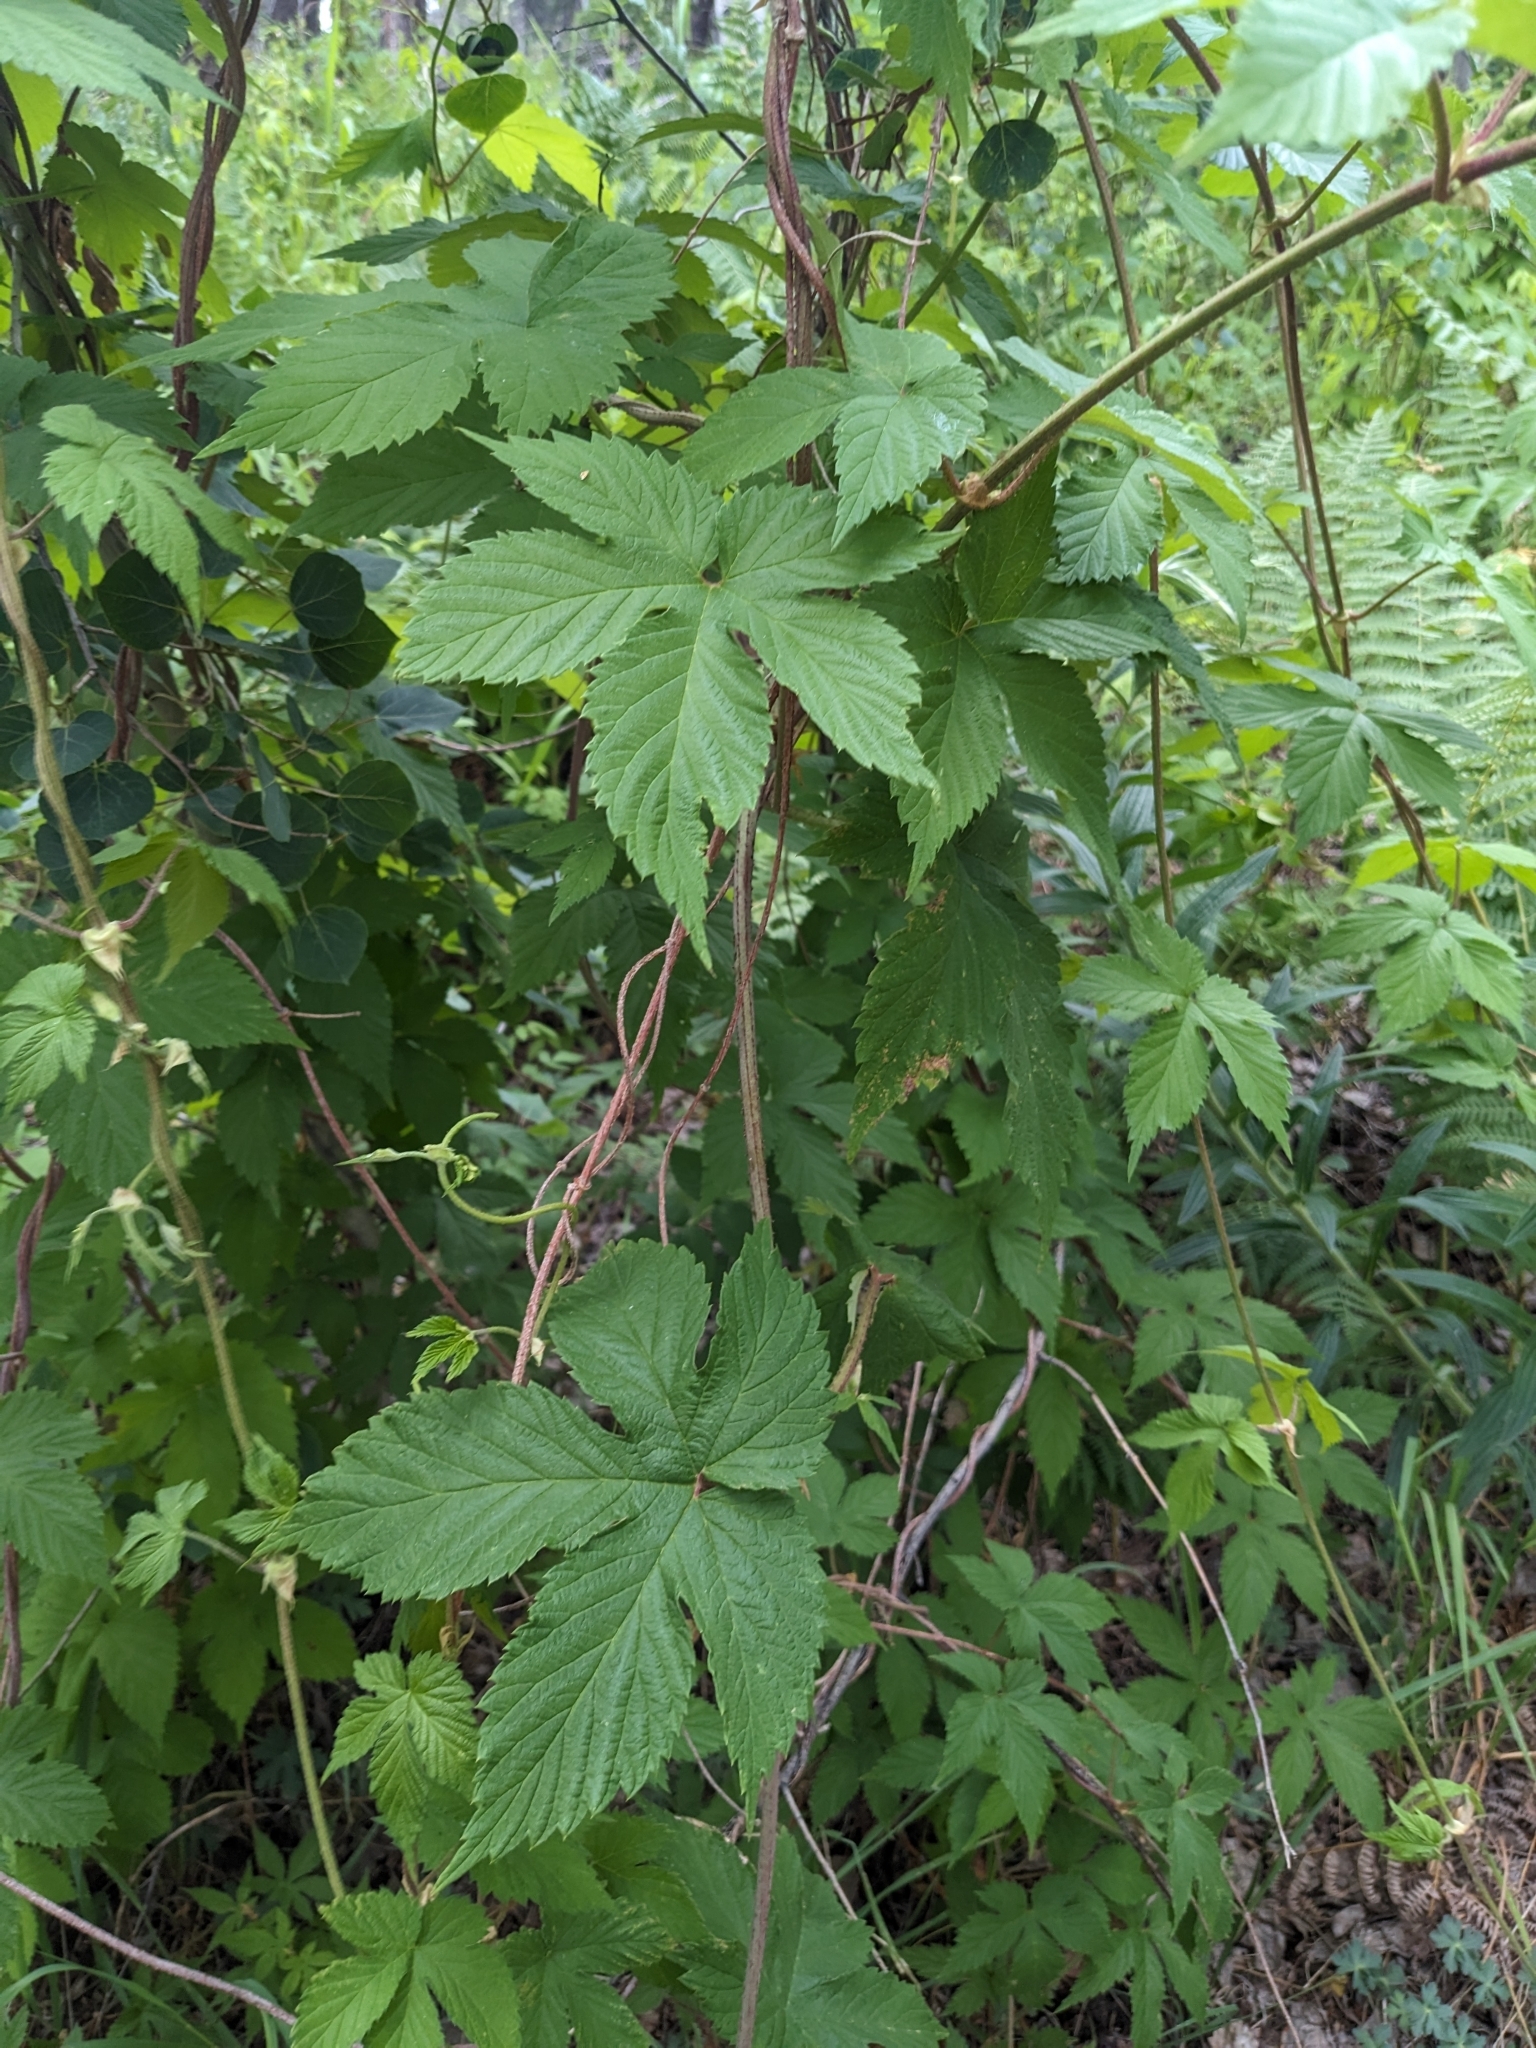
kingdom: Plantae
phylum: Tracheophyta
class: Magnoliopsida
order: Rosales
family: Cannabaceae
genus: Humulus
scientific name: Humulus lupulus
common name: Hop
